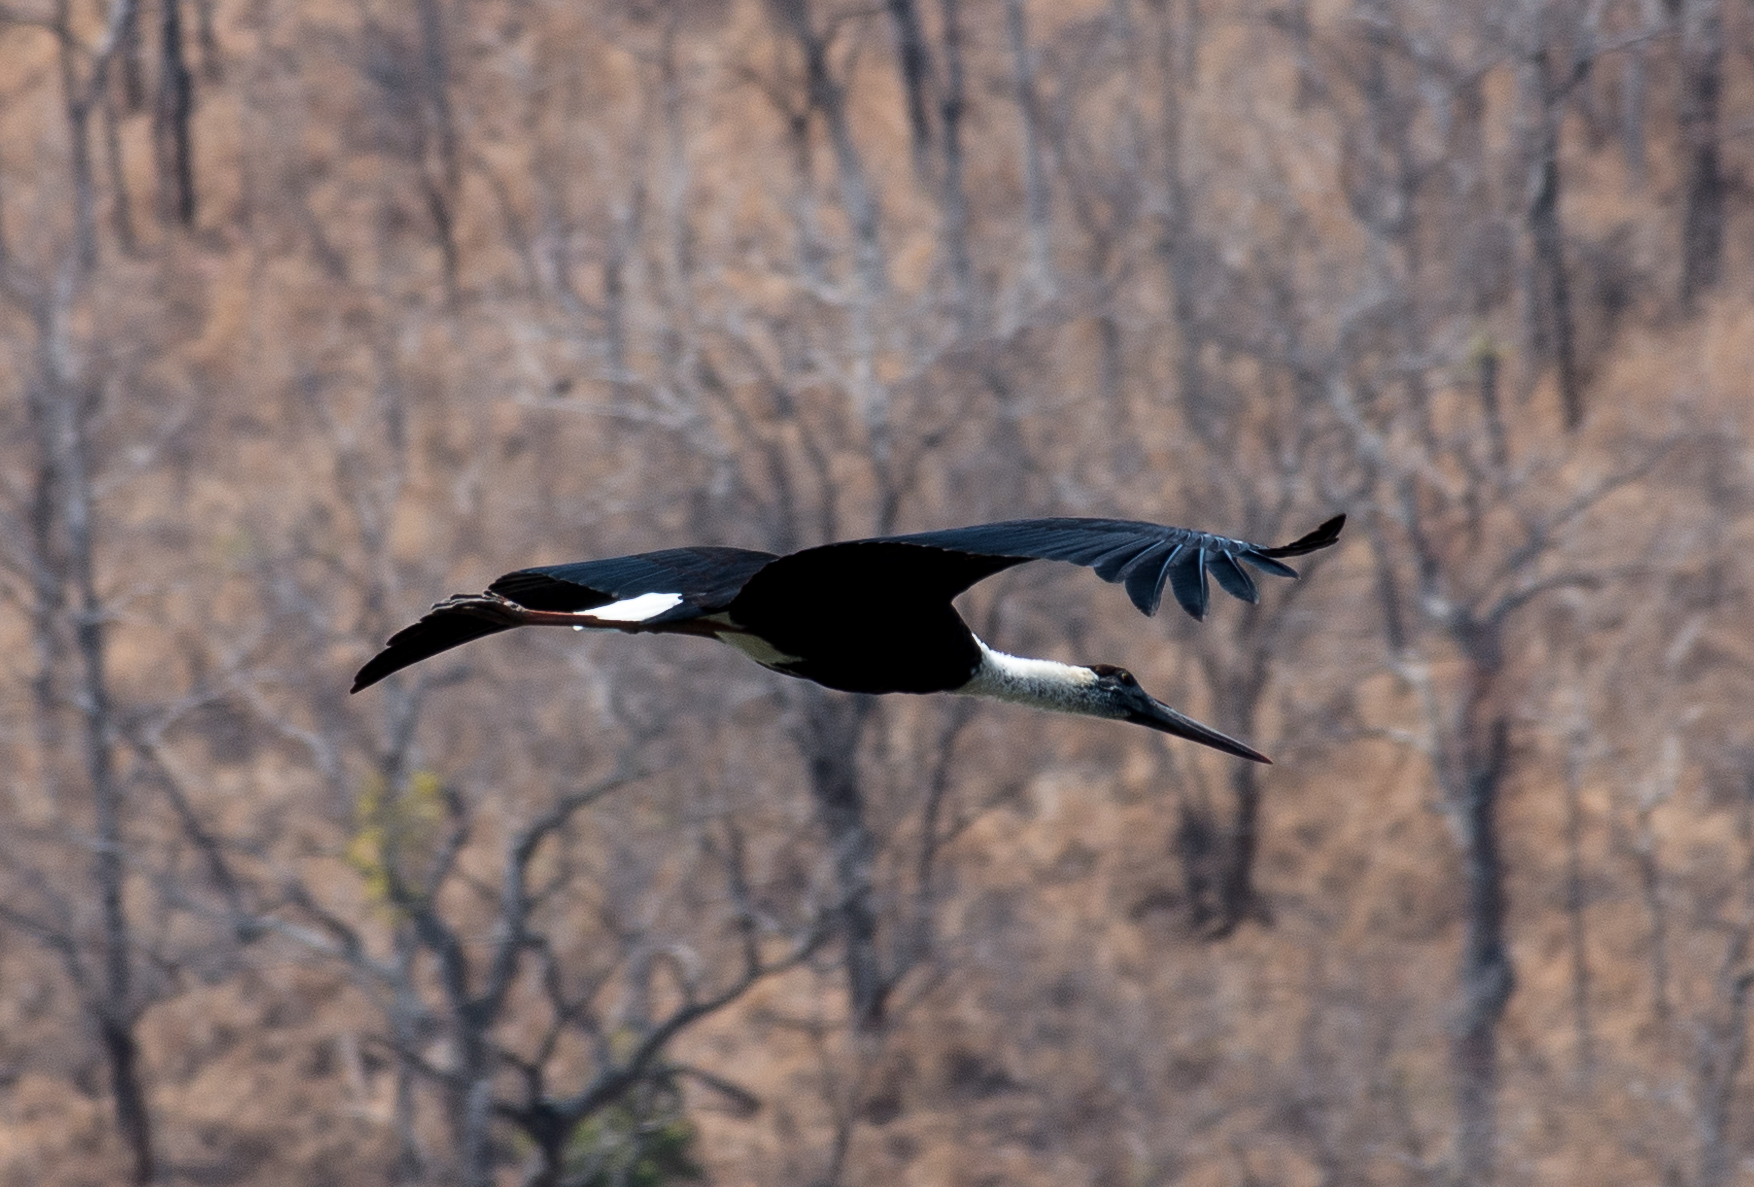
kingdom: Animalia
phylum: Chordata
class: Aves
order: Ciconiiformes
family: Ciconiidae
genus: Ciconia
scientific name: Ciconia episcopus
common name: Woolly-necked stork
